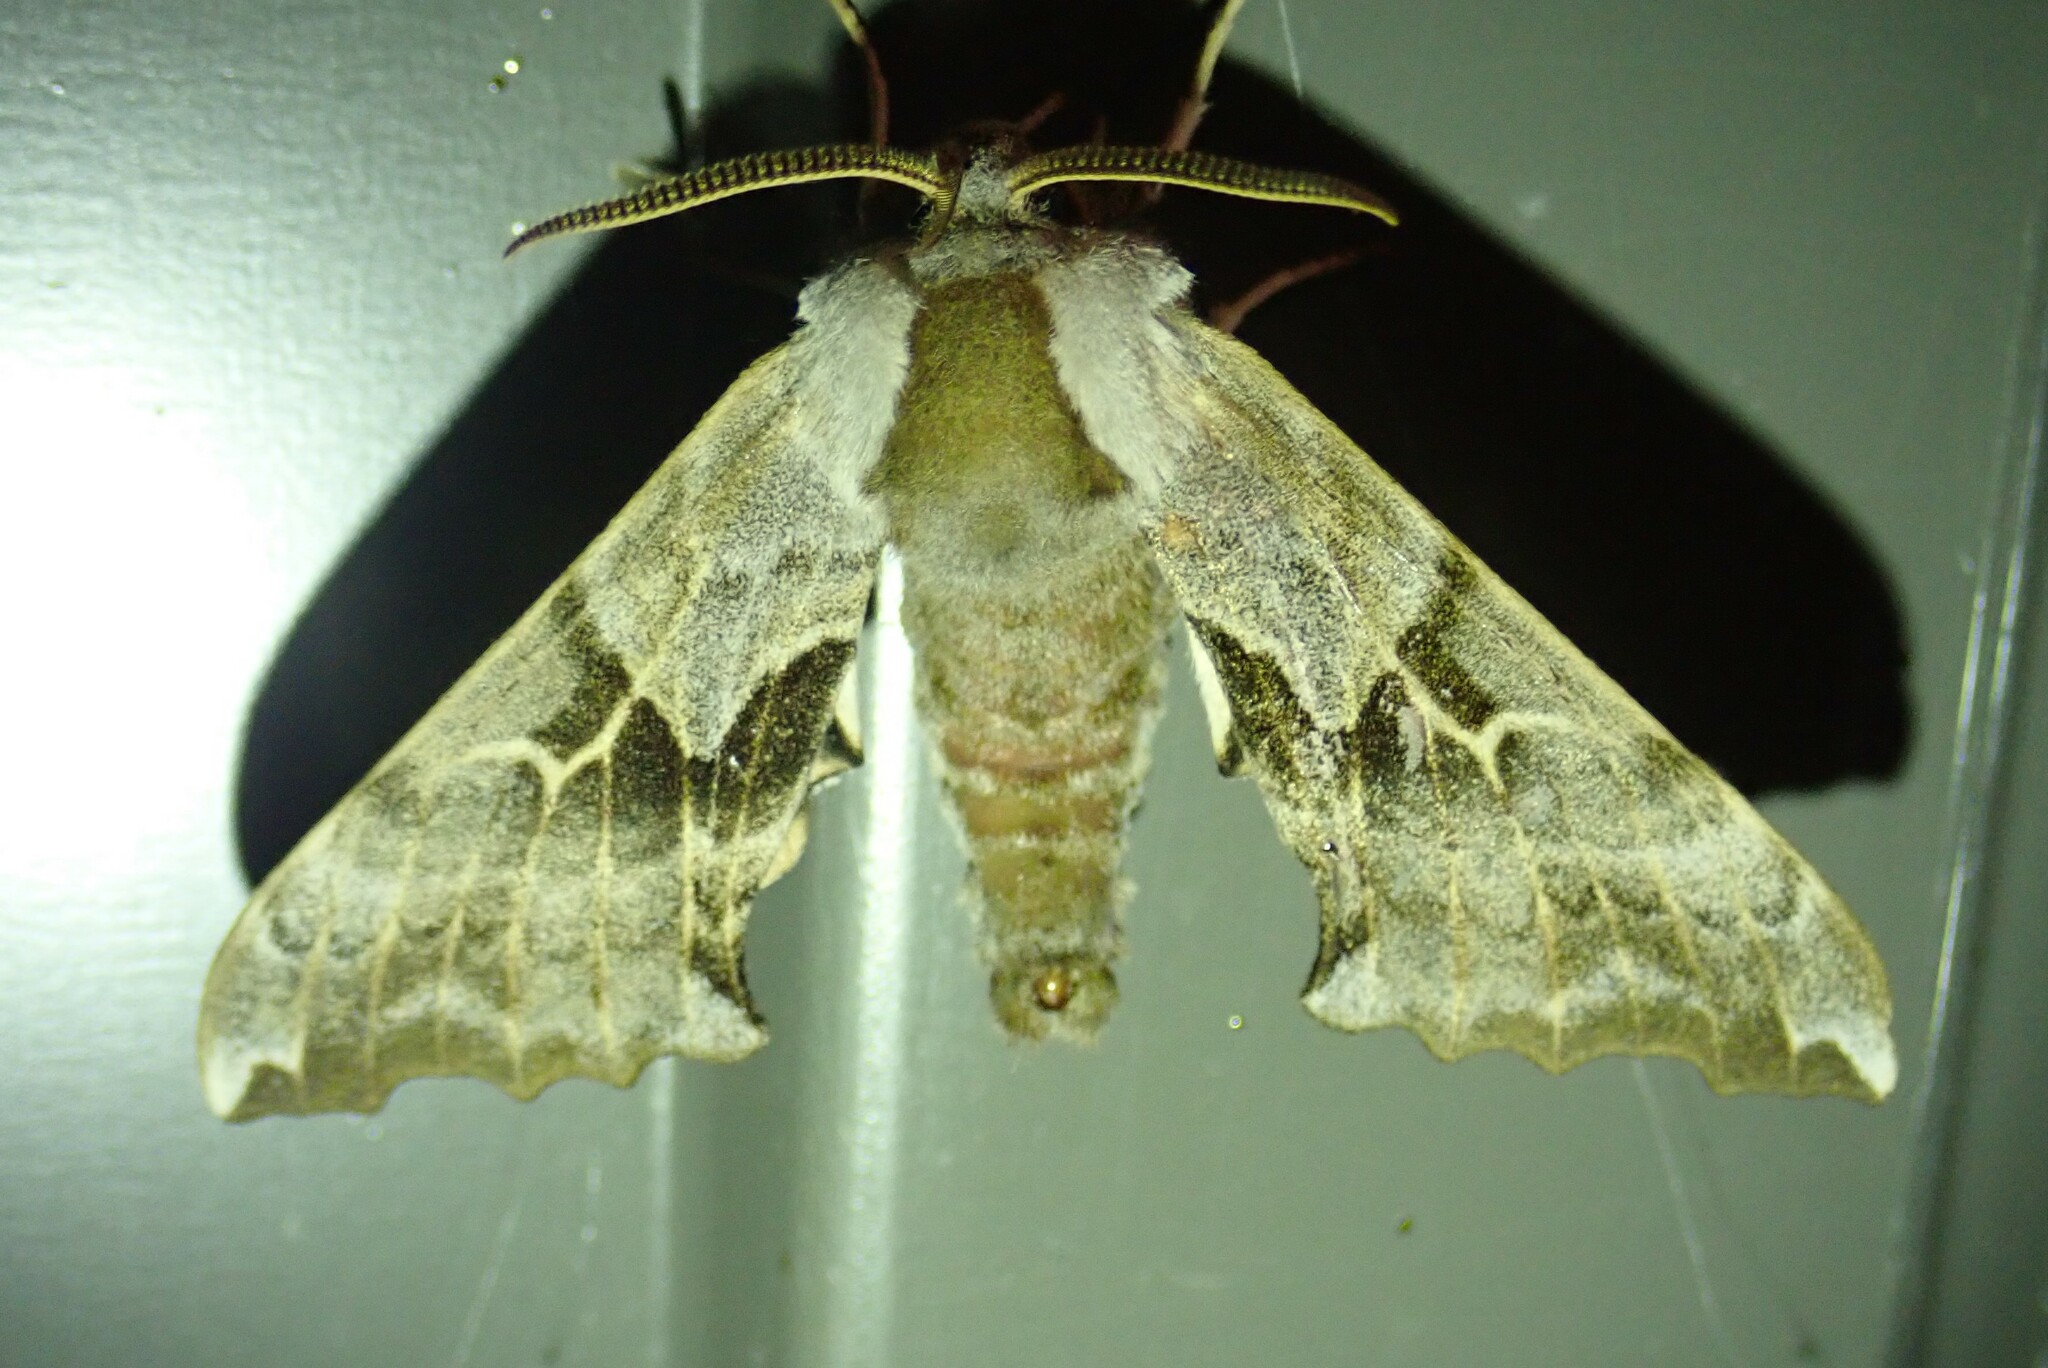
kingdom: Animalia
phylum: Arthropoda
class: Insecta
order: Lepidoptera
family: Sphingidae
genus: Smerinthus
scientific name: Smerinthus cerisyi
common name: Cerisy's sphinx moth
